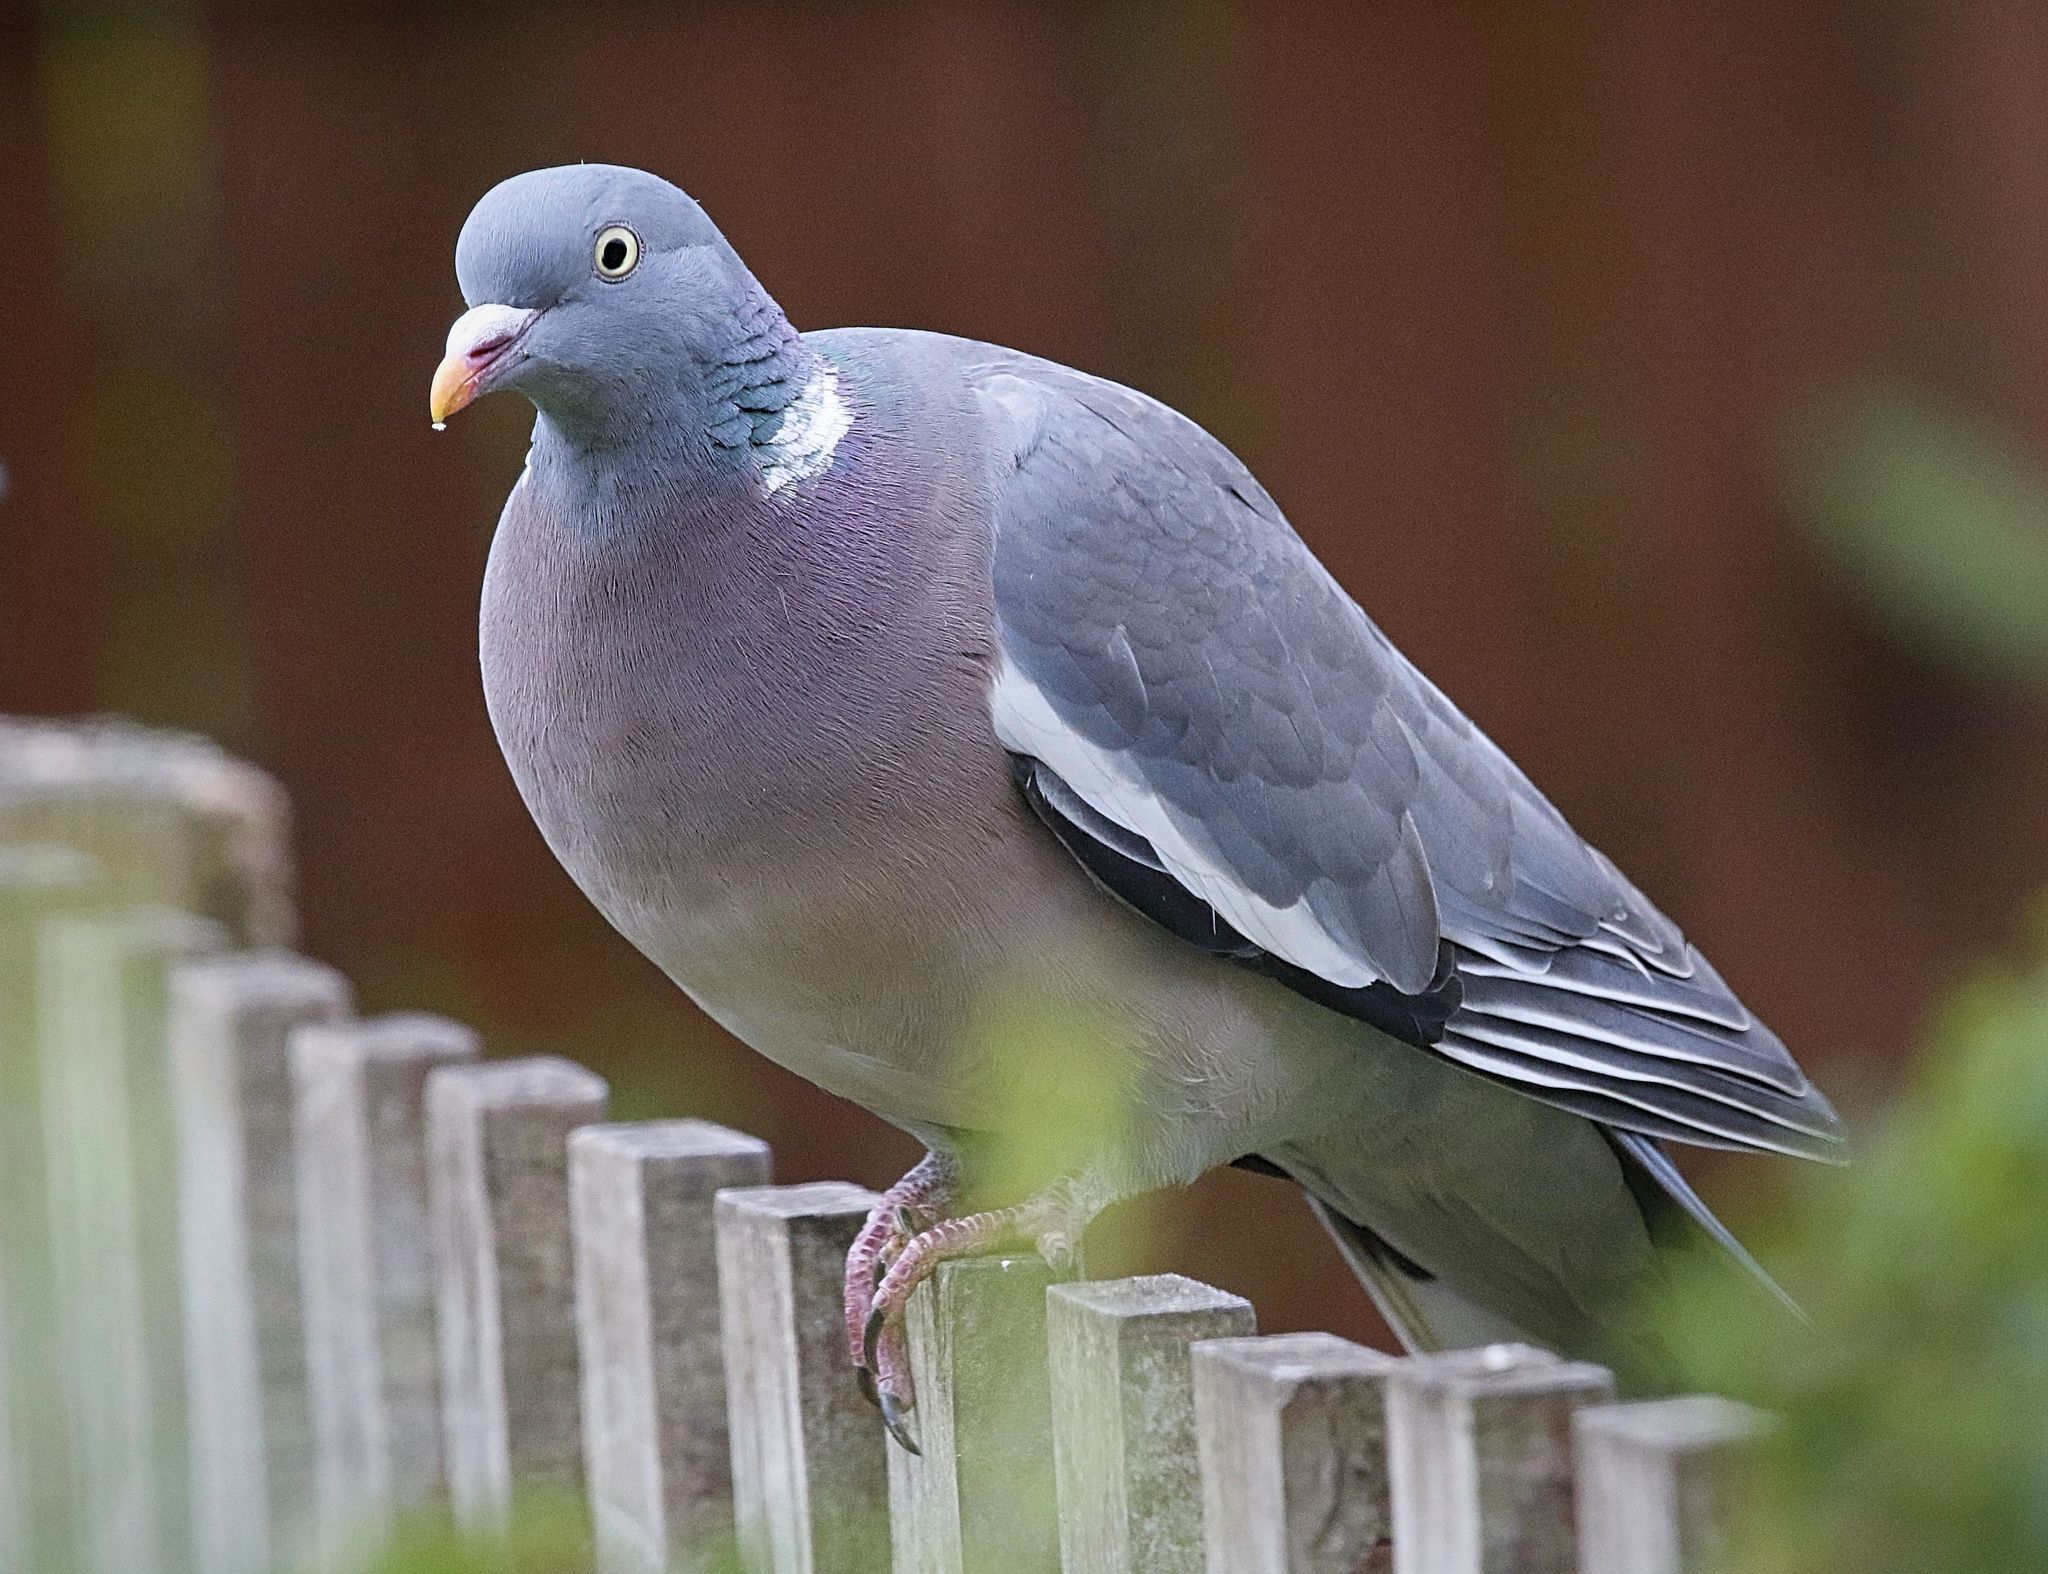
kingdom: Animalia
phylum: Chordata
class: Aves
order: Columbiformes
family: Columbidae
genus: Columba
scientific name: Columba palumbus
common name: Common wood pigeon
